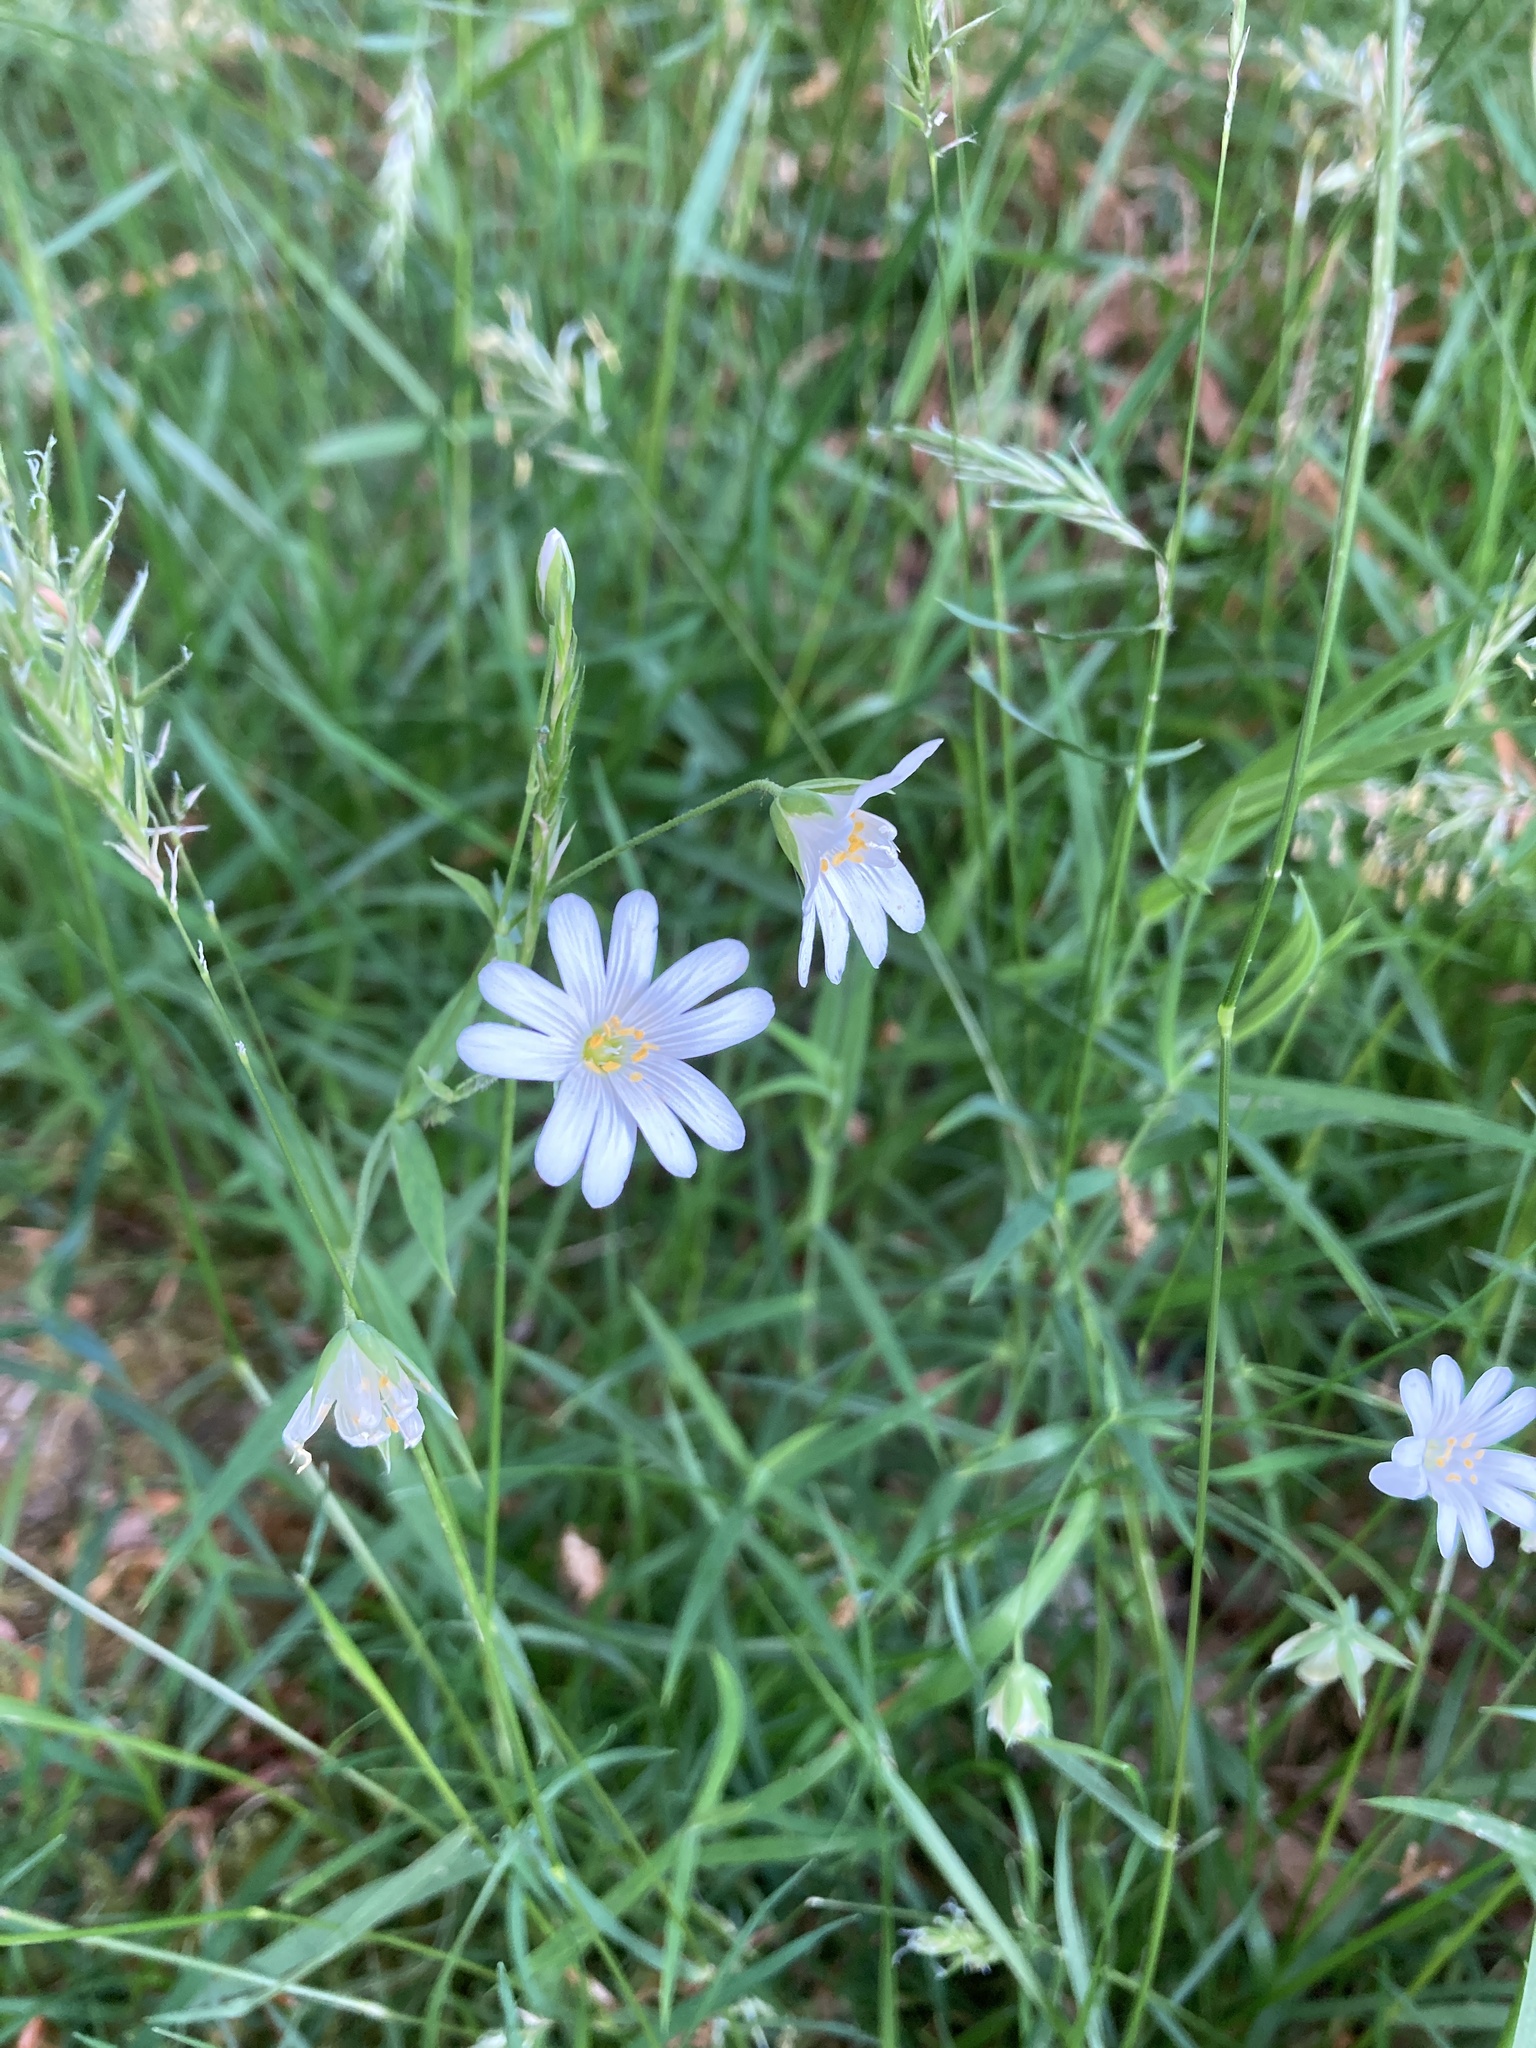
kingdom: Plantae
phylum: Tracheophyta
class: Magnoliopsida
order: Caryophyllales
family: Caryophyllaceae
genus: Rabelera
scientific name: Rabelera holostea
